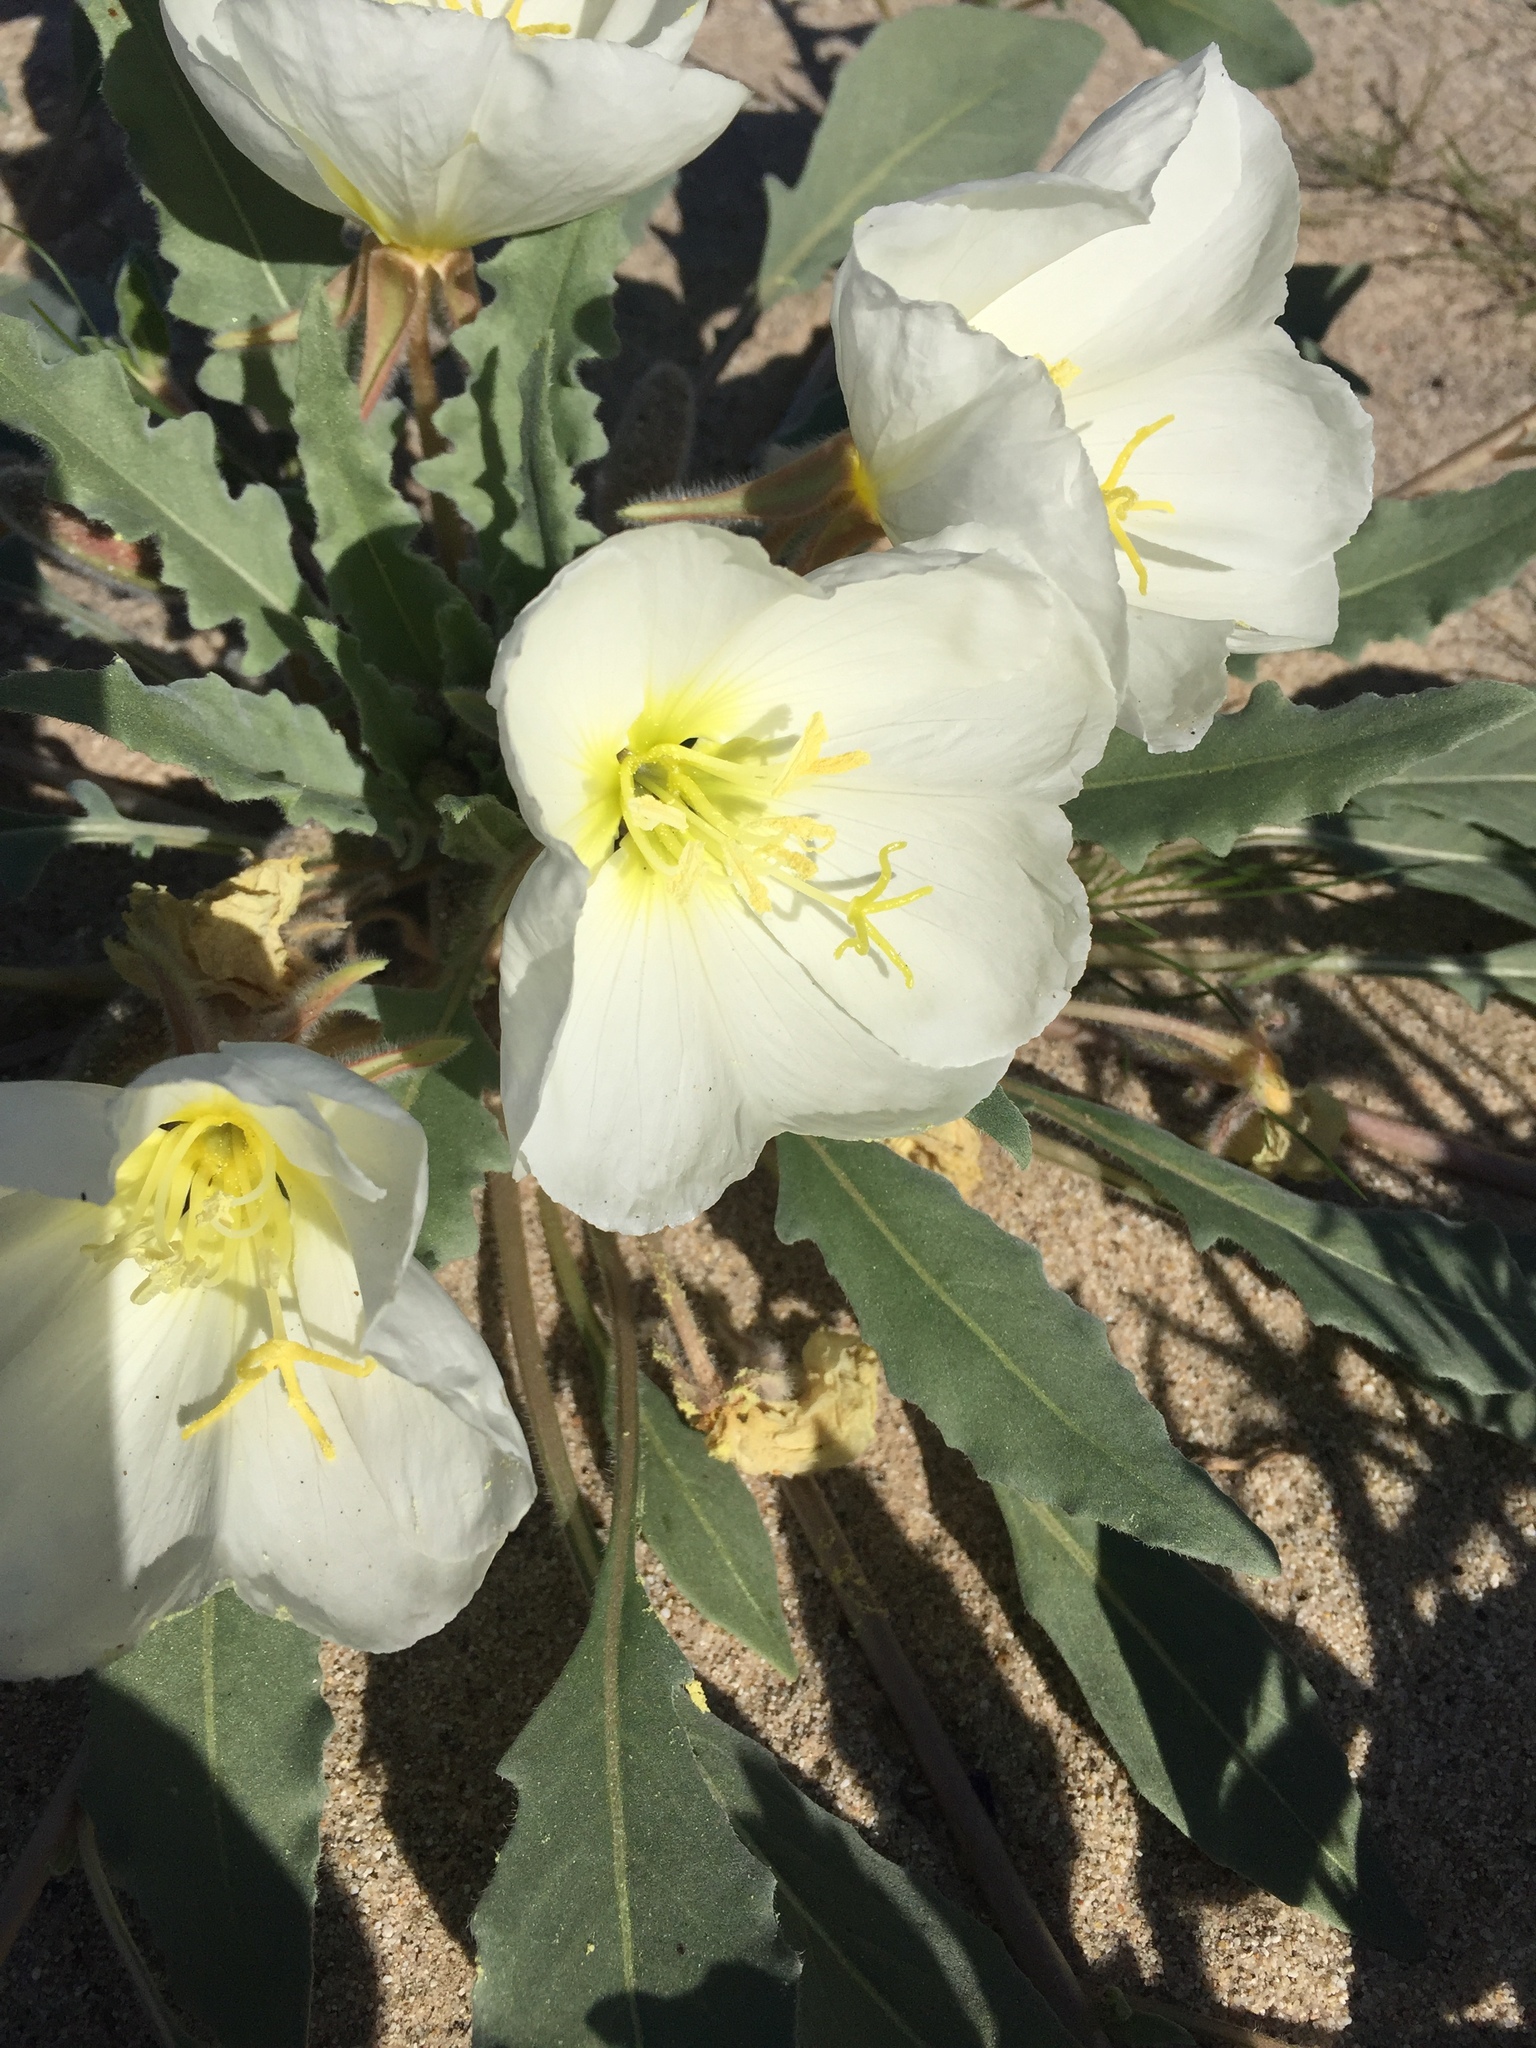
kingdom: Plantae
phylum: Tracheophyta
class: Magnoliopsida
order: Myrtales
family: Onagraceae
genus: Oenothera
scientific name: Oenothera deltoides
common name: Basket evening-primrose
